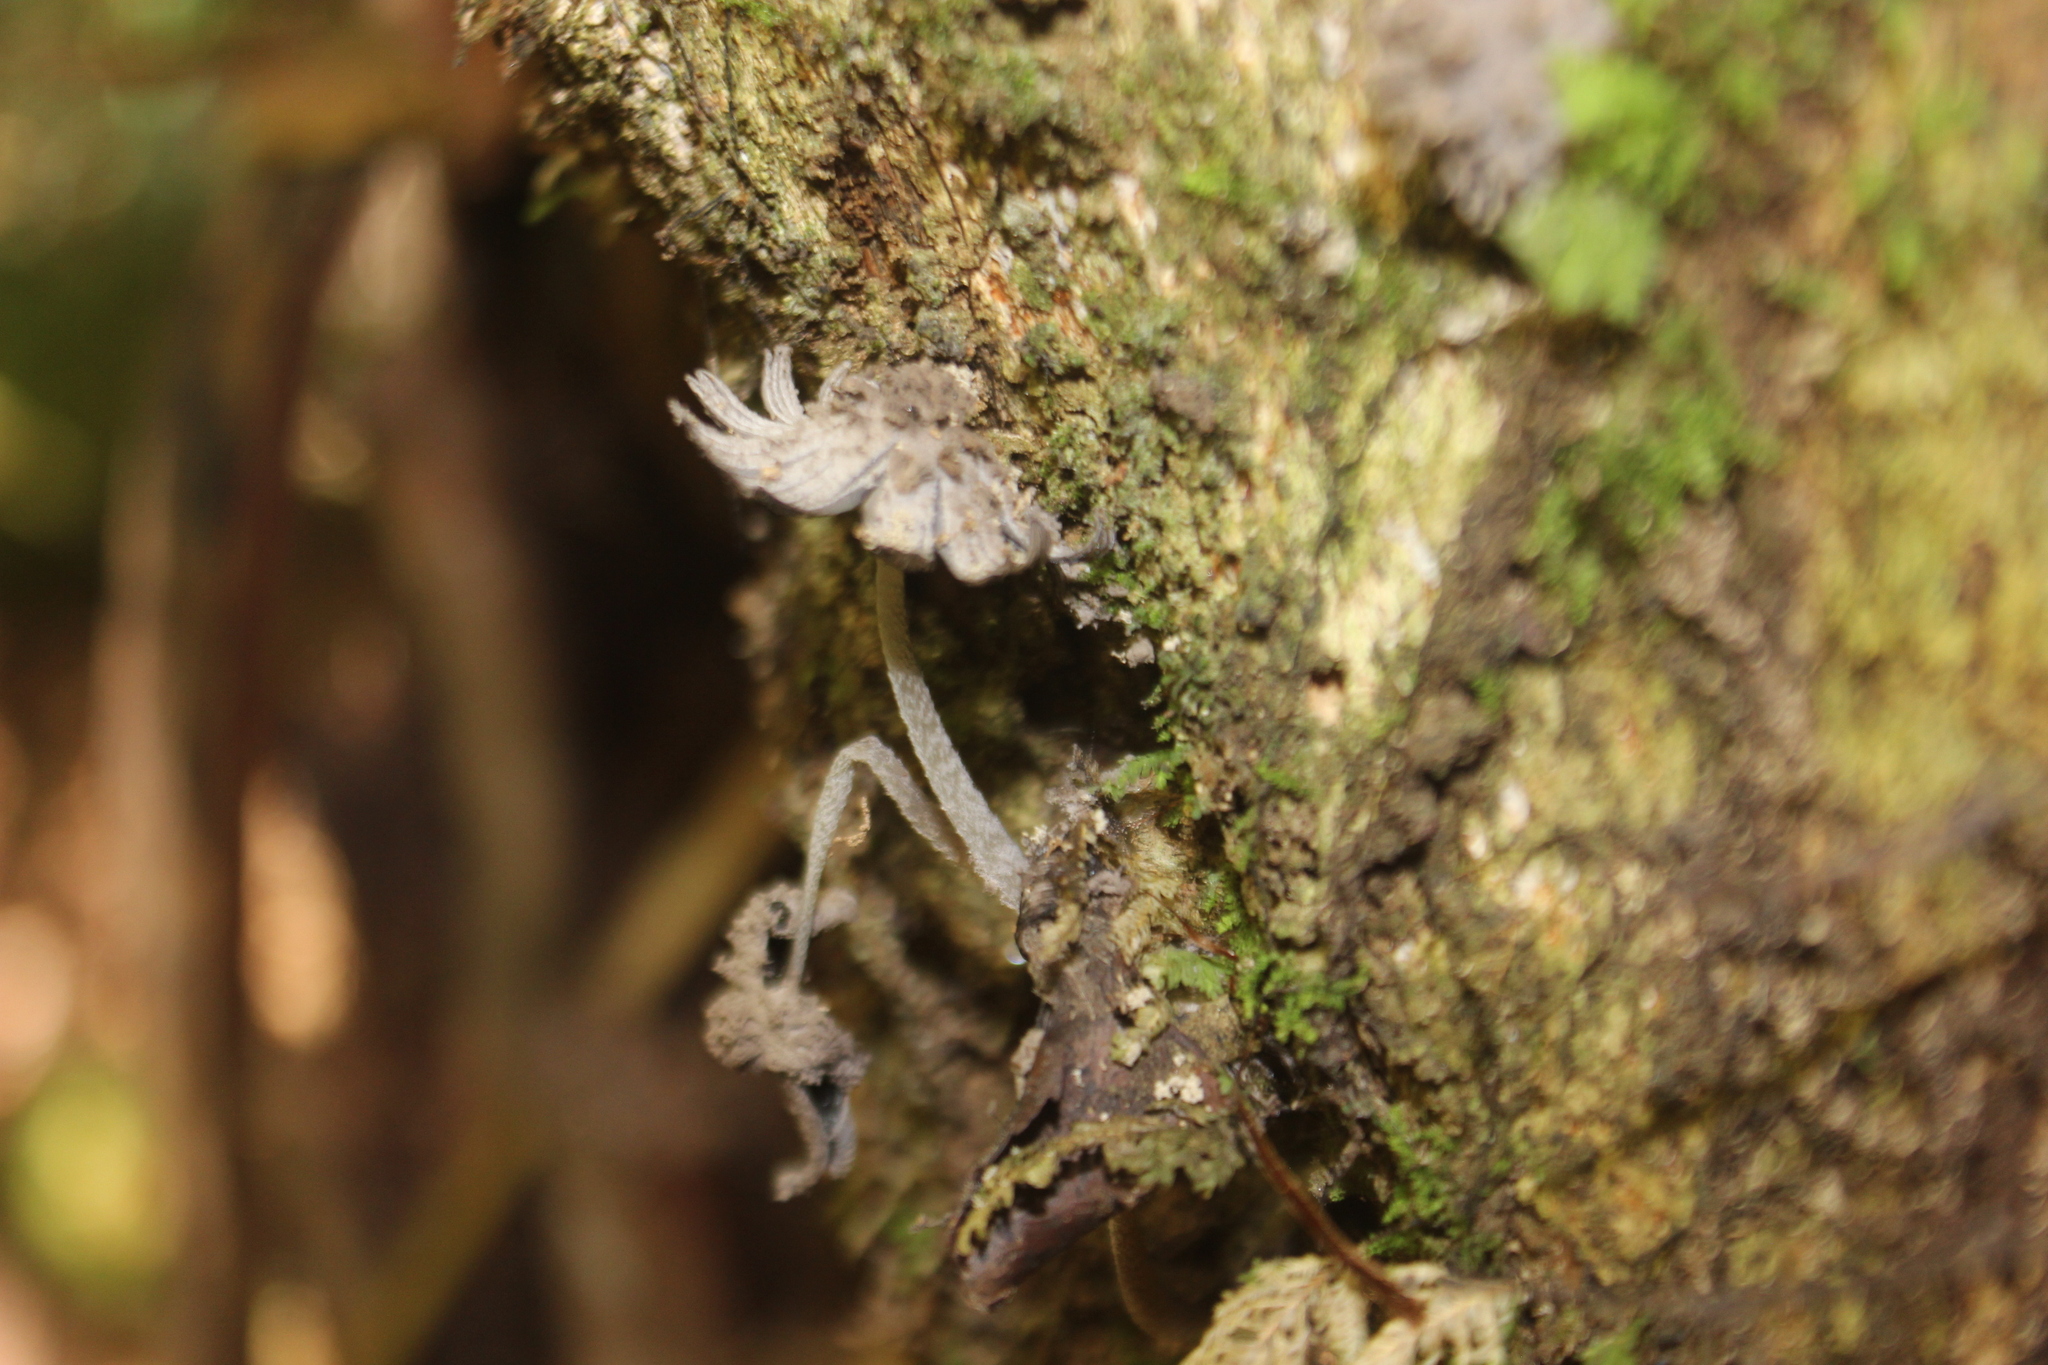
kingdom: Fungi
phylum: Basidiomycota
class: Agaricomycetes
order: Agaricales
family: Psathyrellaceae
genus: Coprinopsis
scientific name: Coprinopsis laanii
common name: Dotty inkcap
